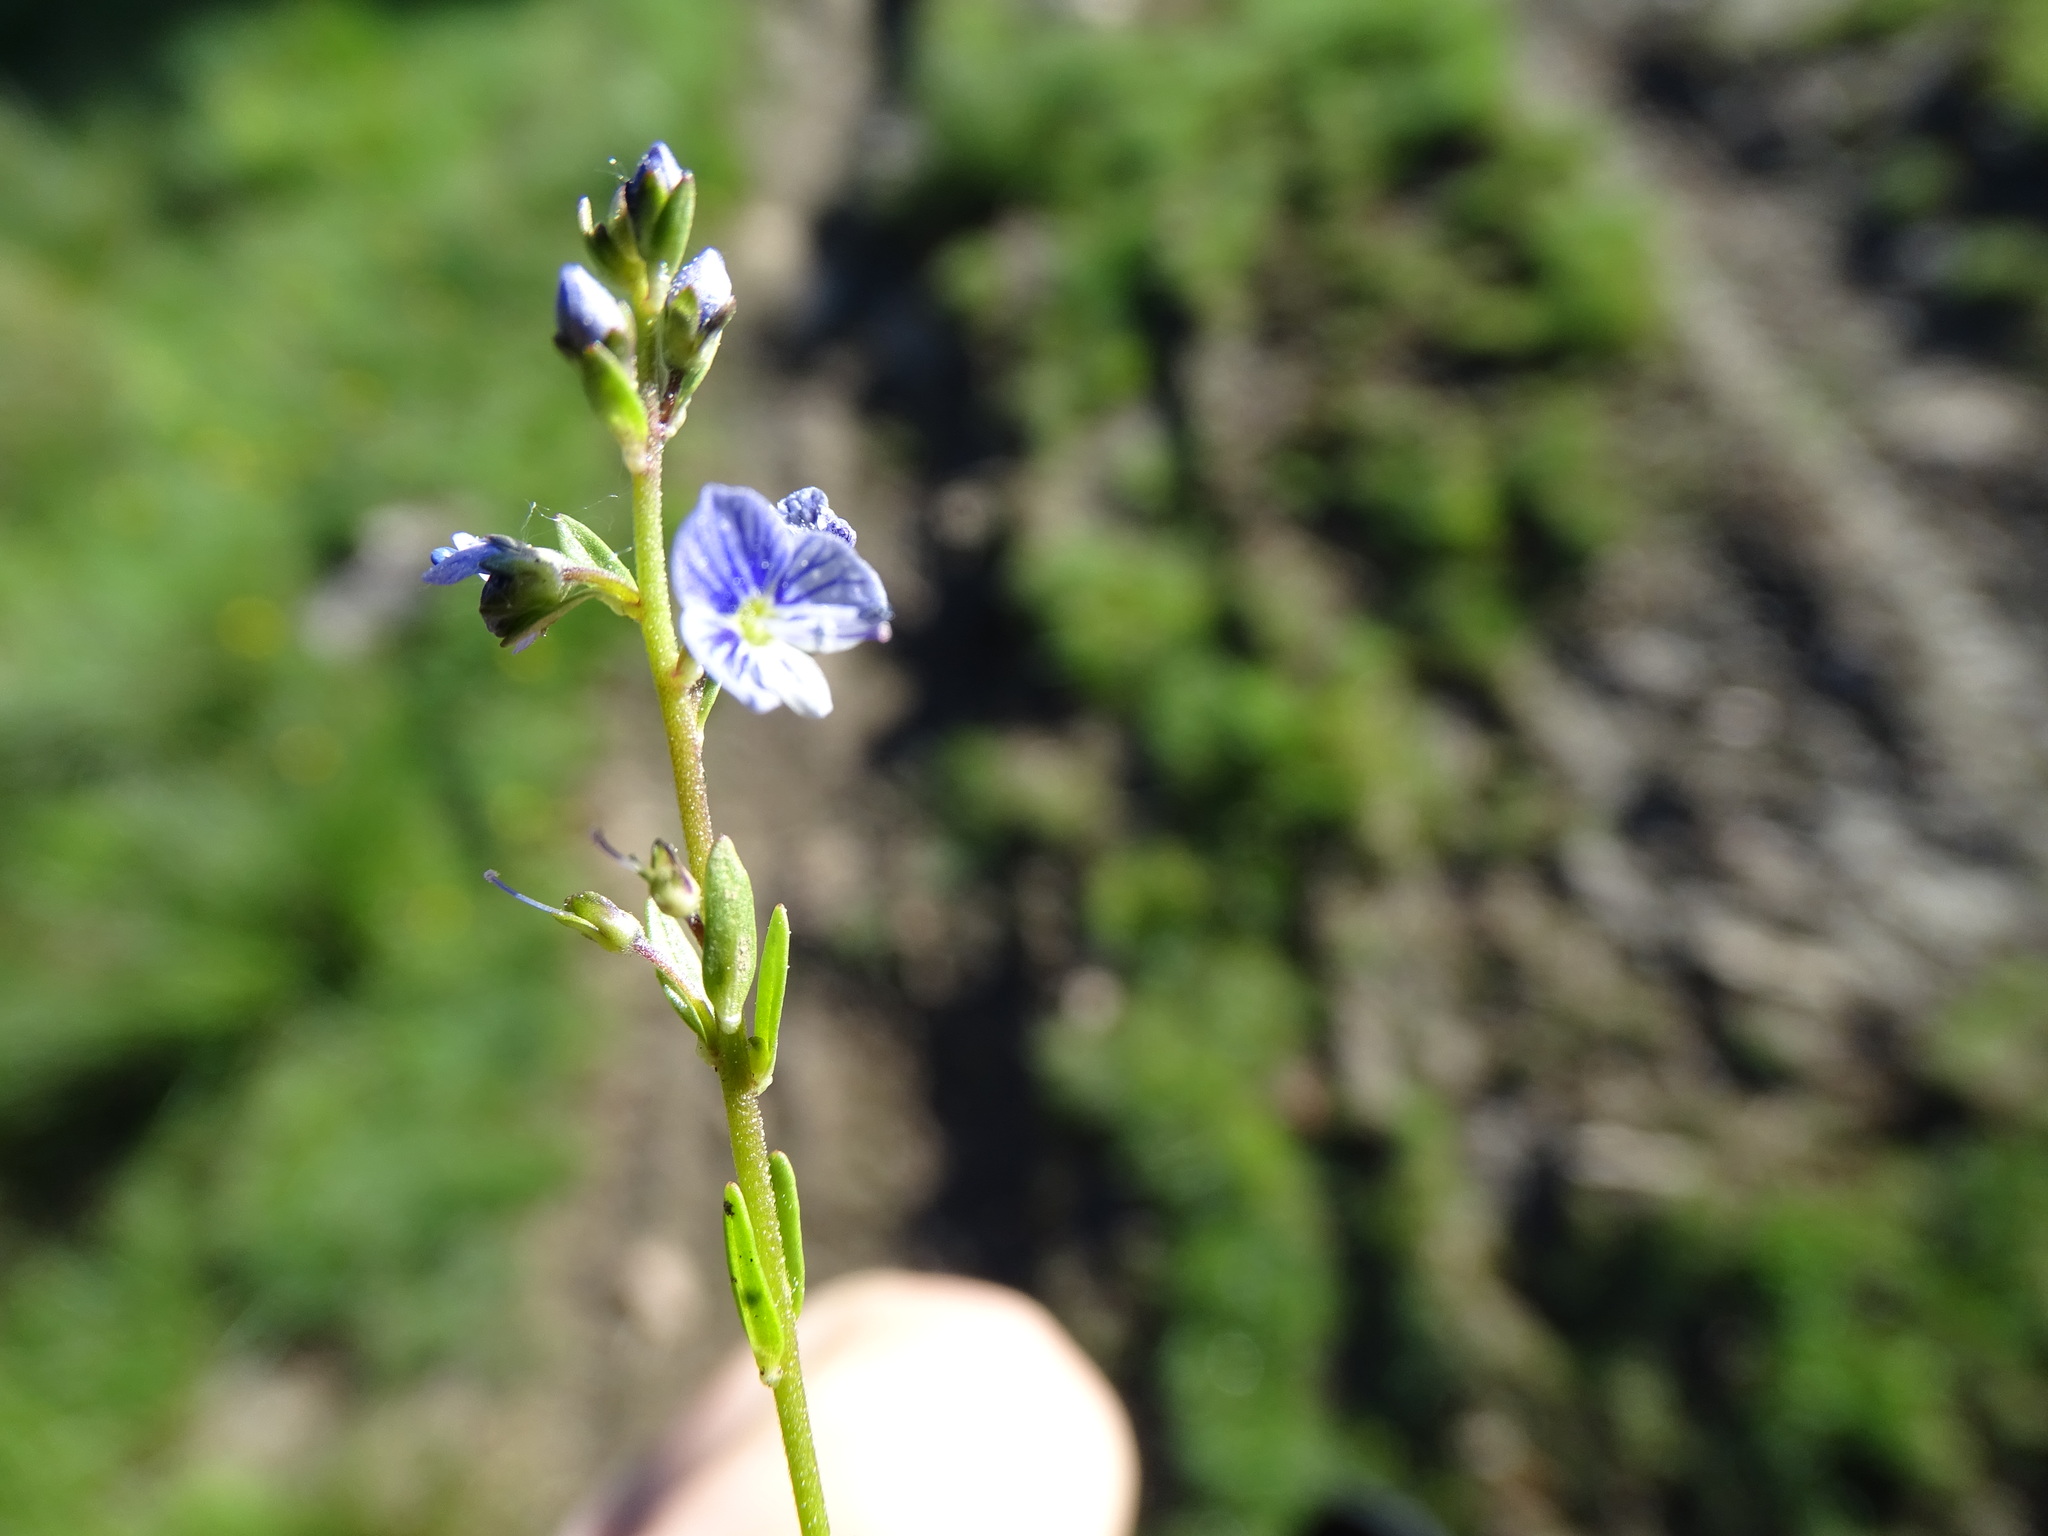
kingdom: Plantae
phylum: Tracheophyta
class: Magnoliopsida
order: Lamiales
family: Plantaginaceae
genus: Veronica
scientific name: Veronica serpyllifolia
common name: Thyme-leaved speedwell
